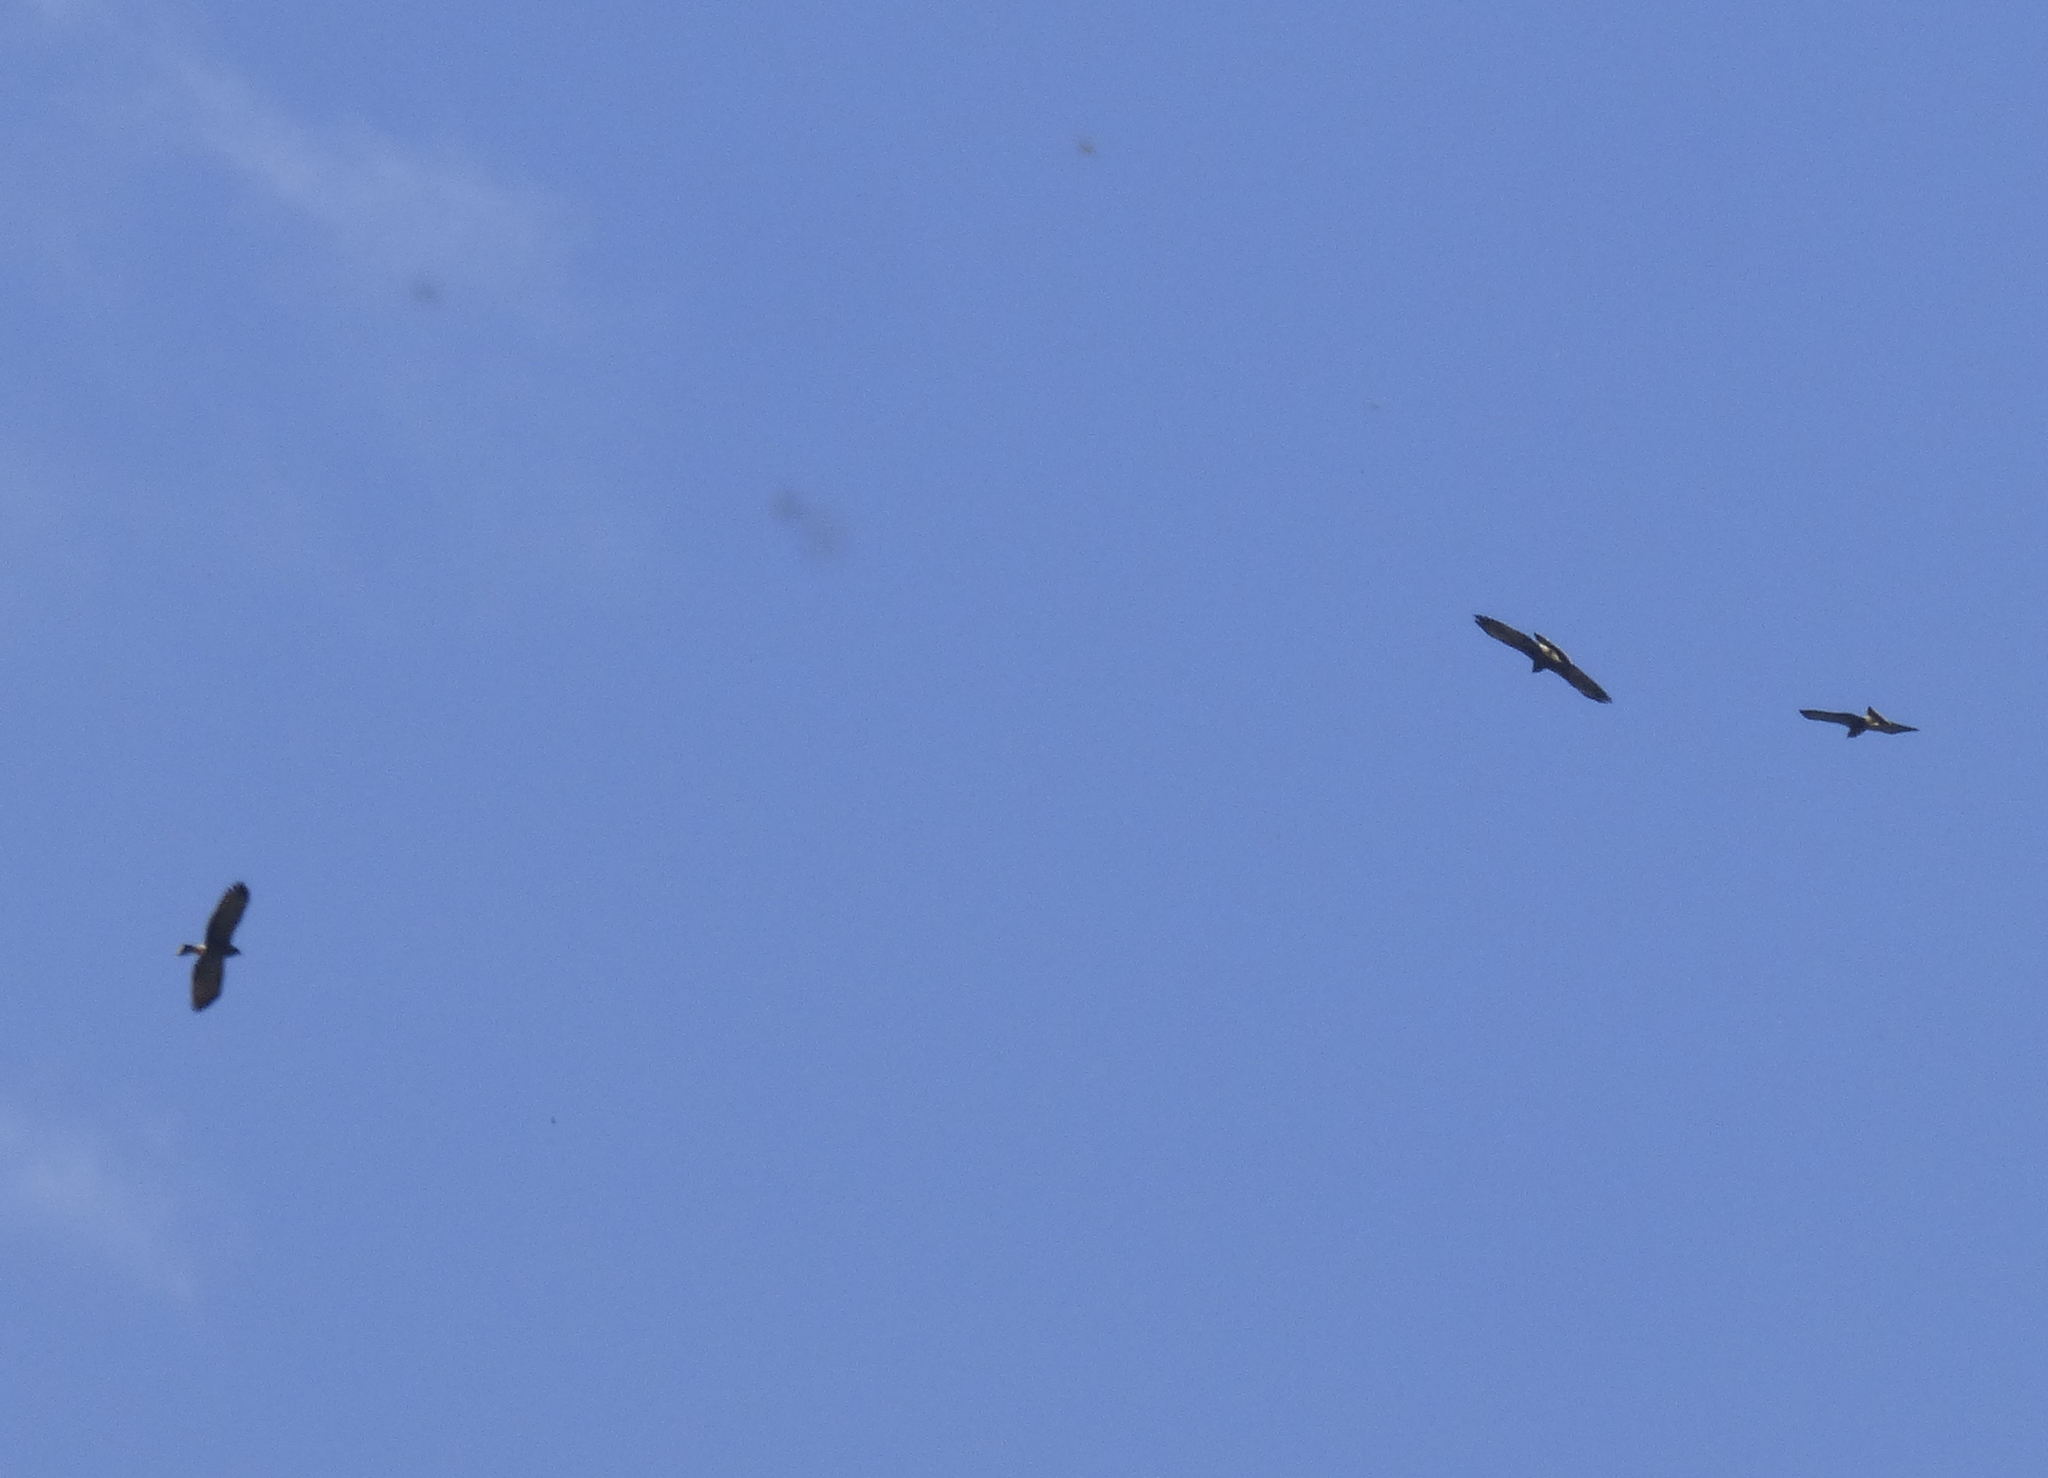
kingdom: Animalia
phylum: Chordata
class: Aves
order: Accipitriformes
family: Accipitridae
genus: Rostrhamus
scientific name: Rostrhamus sociabilis
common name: Snail kite
